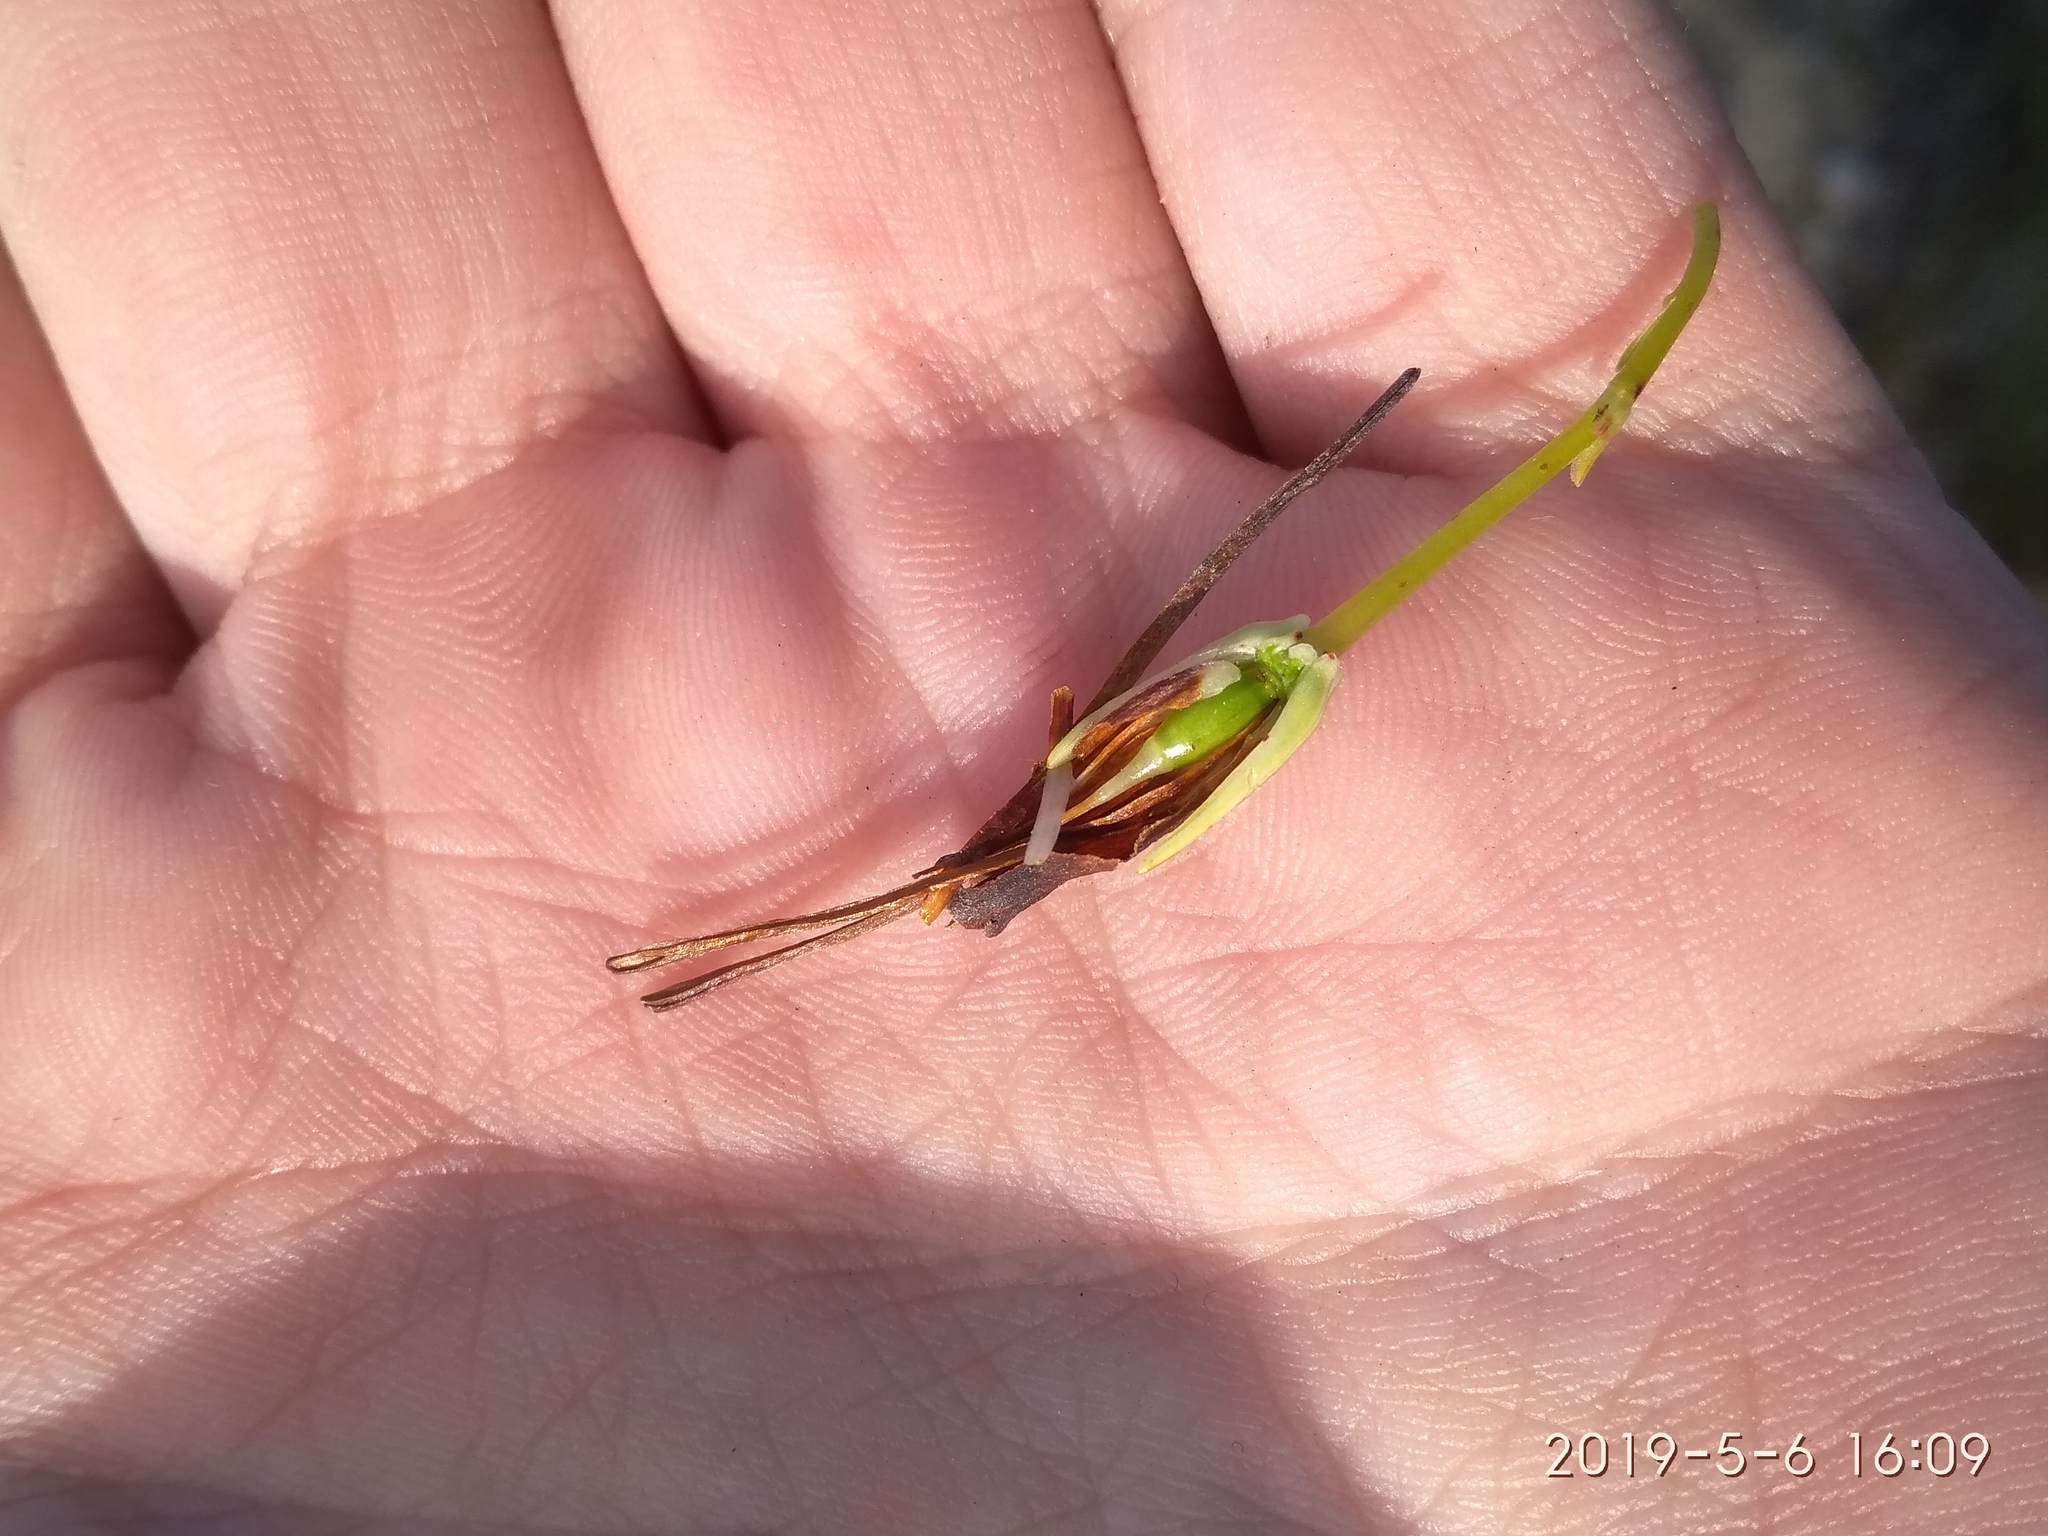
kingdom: Plantae
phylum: Tracheophyta
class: Magnoliopsida
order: Ericales
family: Ericaceae
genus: Erica
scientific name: Erica plukenetii
